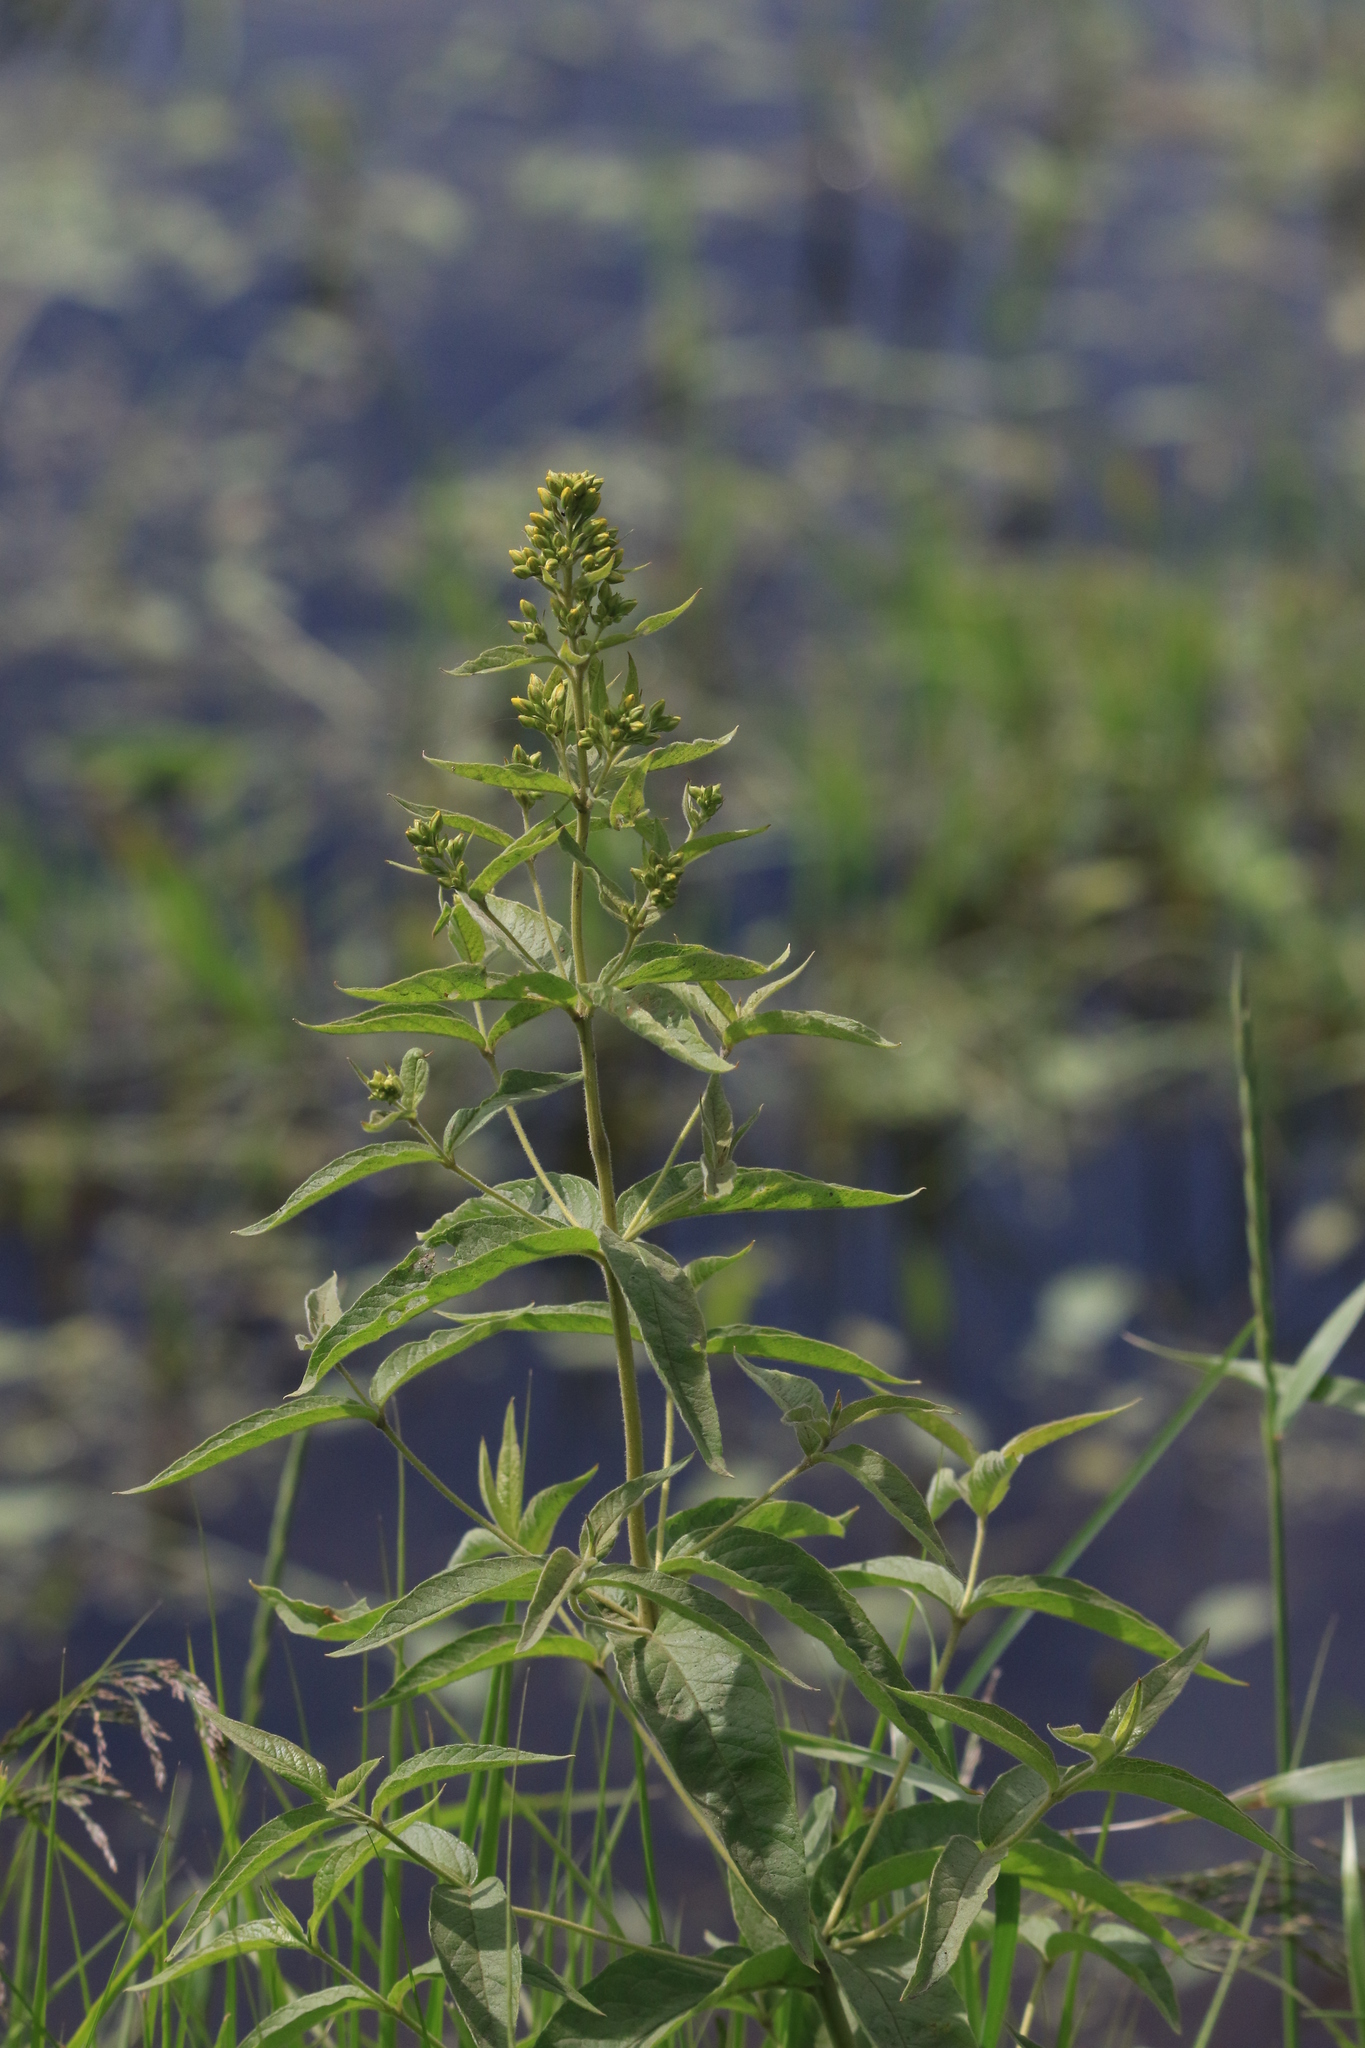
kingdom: Plantae
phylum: Tracheophyta
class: Magnoliopsida
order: Ericales
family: Primulaceae
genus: Lysimachia
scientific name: Lysimachia vulgaris
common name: Yellow loosestrife
